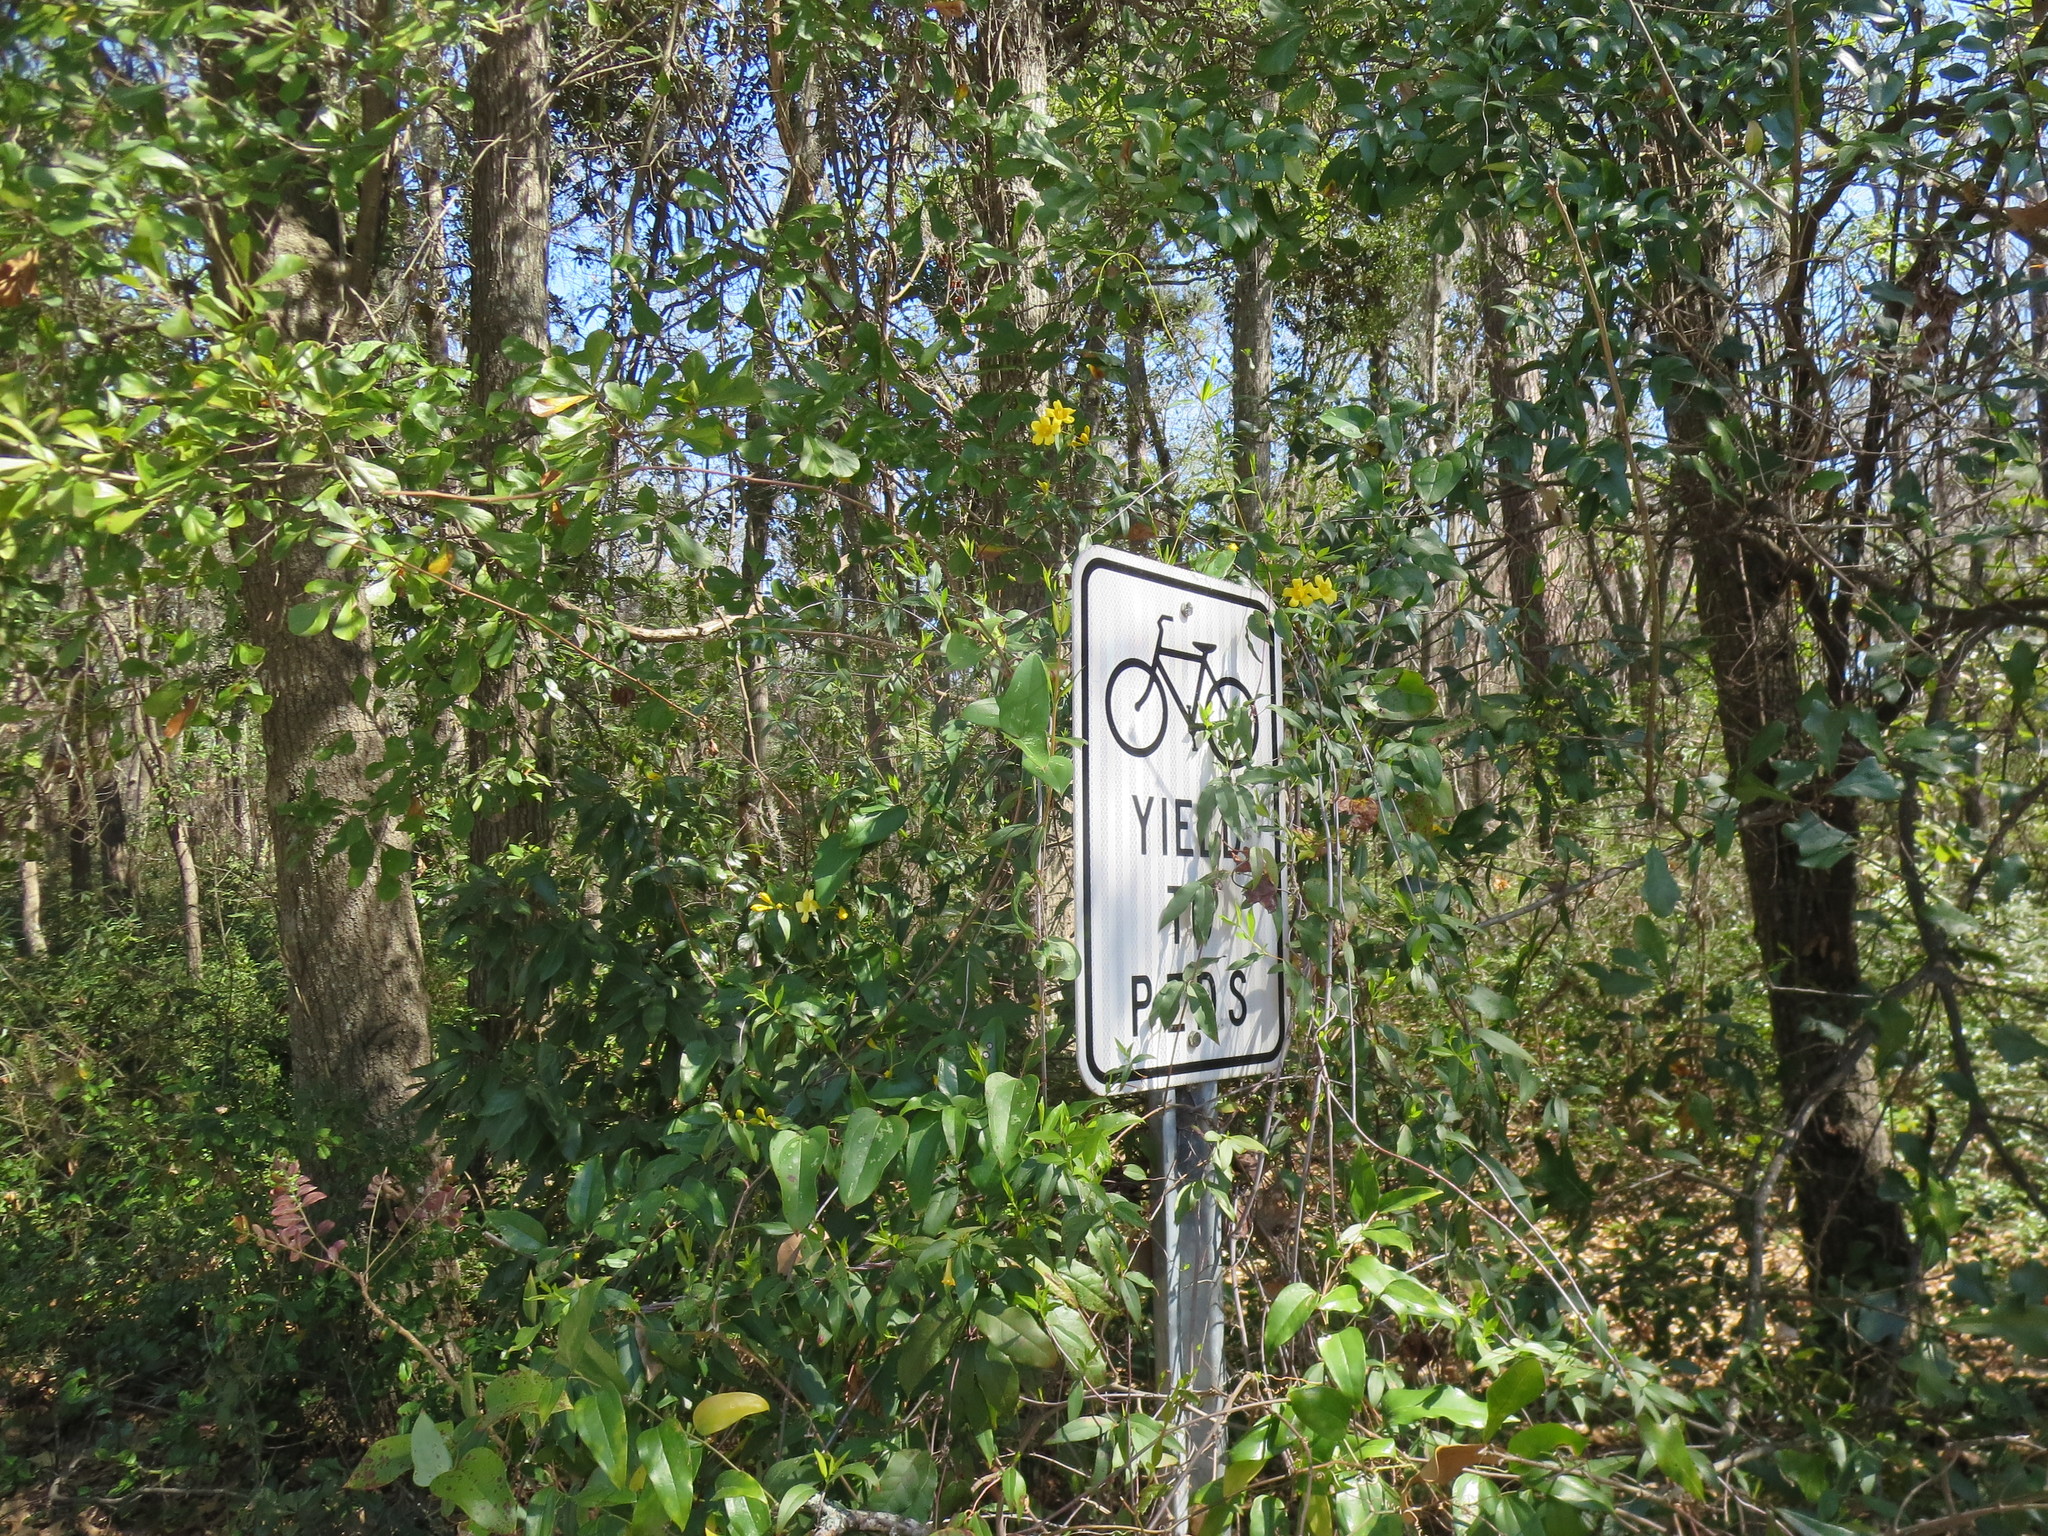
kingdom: Plantae
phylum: Tracheophyta
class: Magnoliopsida
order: Gentianales
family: Gelsemiaceae
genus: Gelsemium
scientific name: Gelsemium sempervirens
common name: Carolina-jasmine
